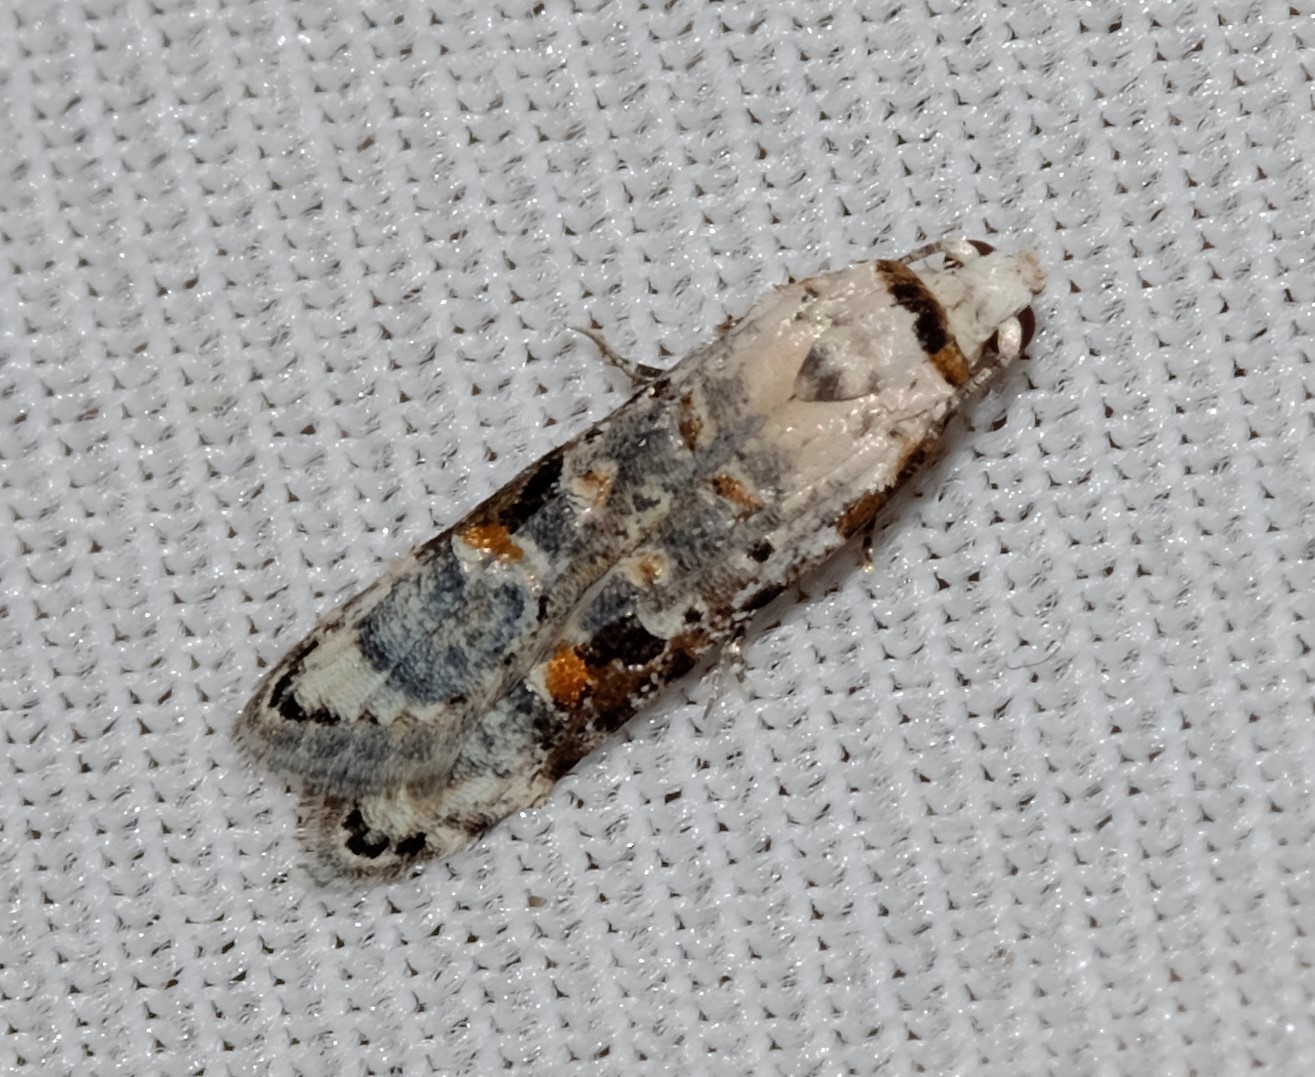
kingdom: Animalia
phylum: Arthropoda
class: Insecta
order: Lepidoptera
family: Carposinidae
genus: Sosineura
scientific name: Sosineura mimica
